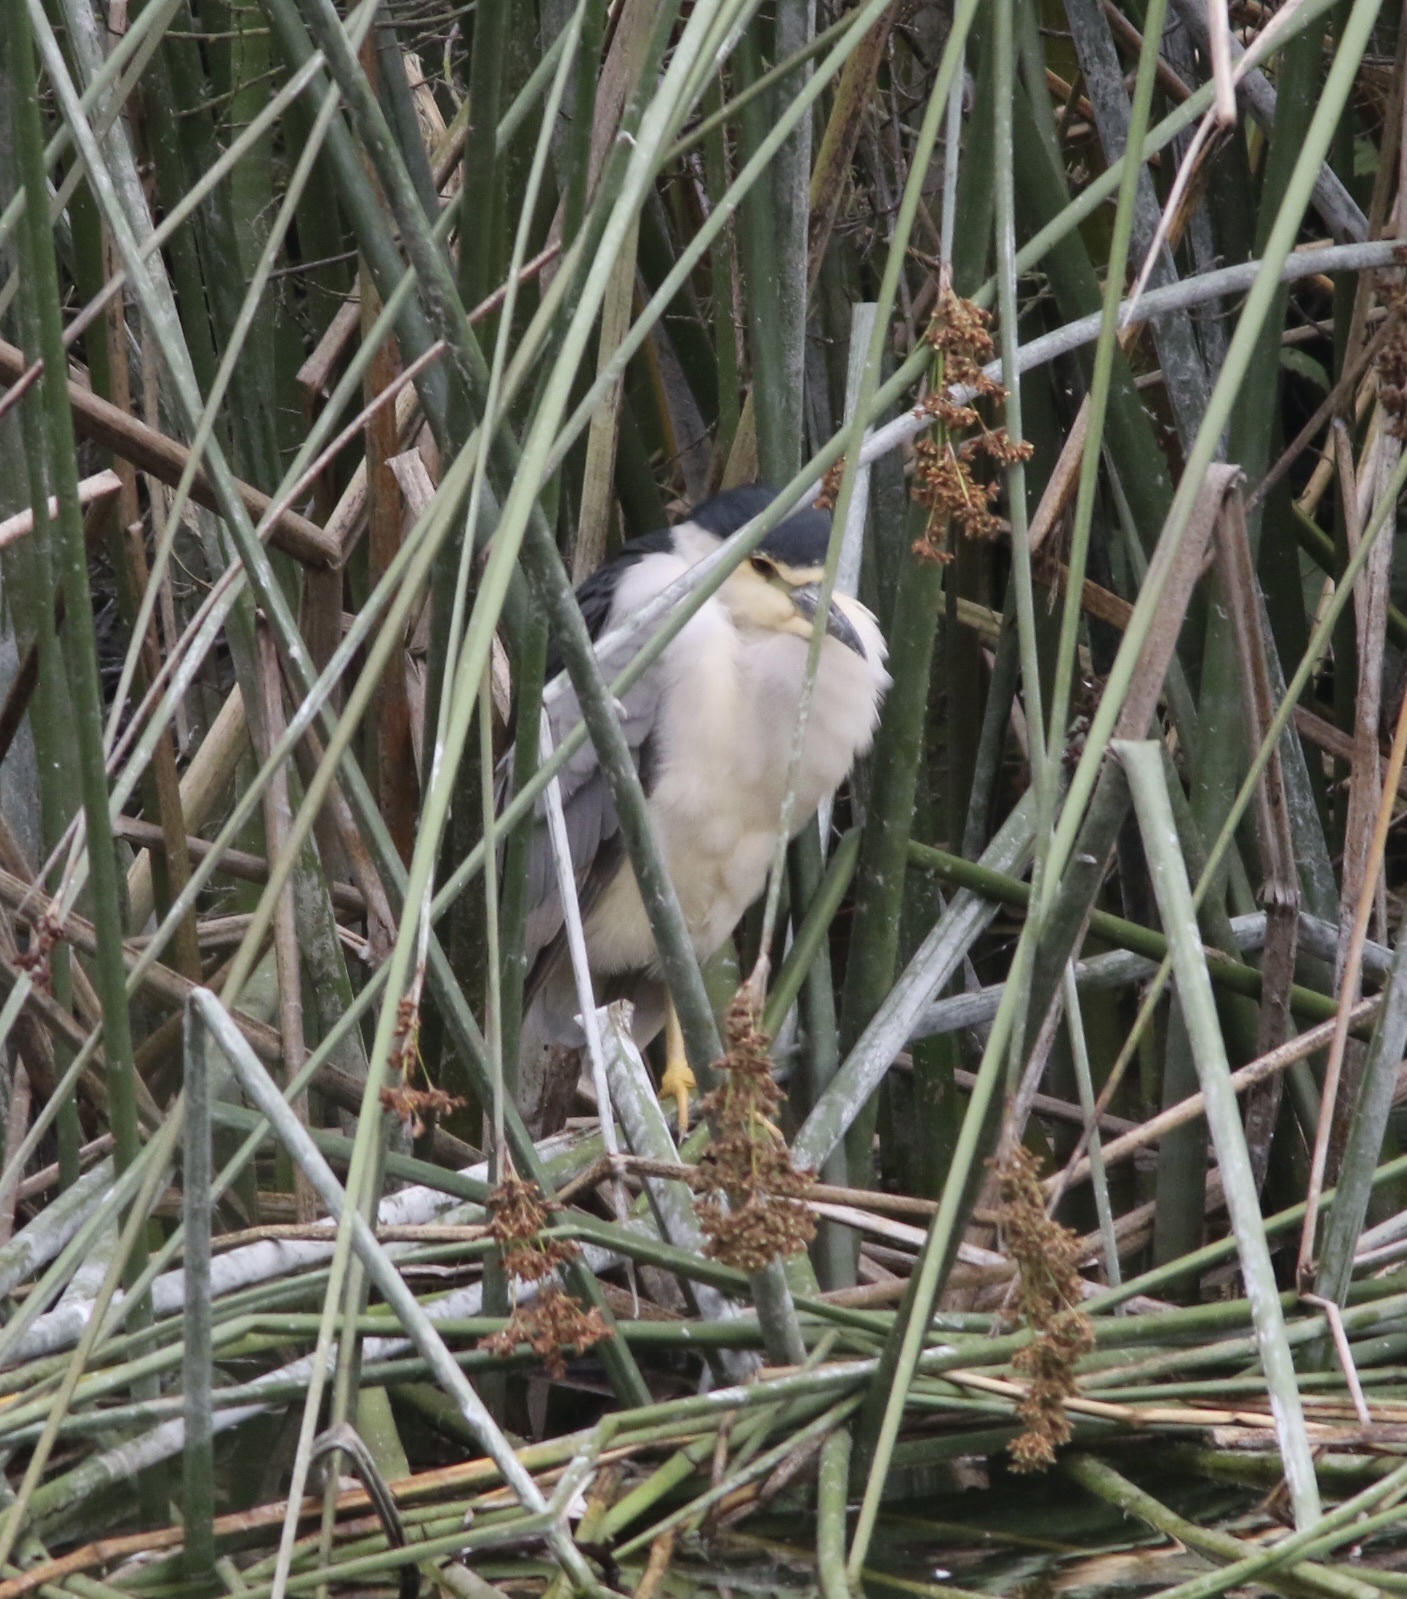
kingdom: Animalia
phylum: Chordata
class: Aves
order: Pelecaniformes
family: Ardeidae
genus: Nycticorax
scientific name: Nycticorax nycticorax
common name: Black-crowned night heron
